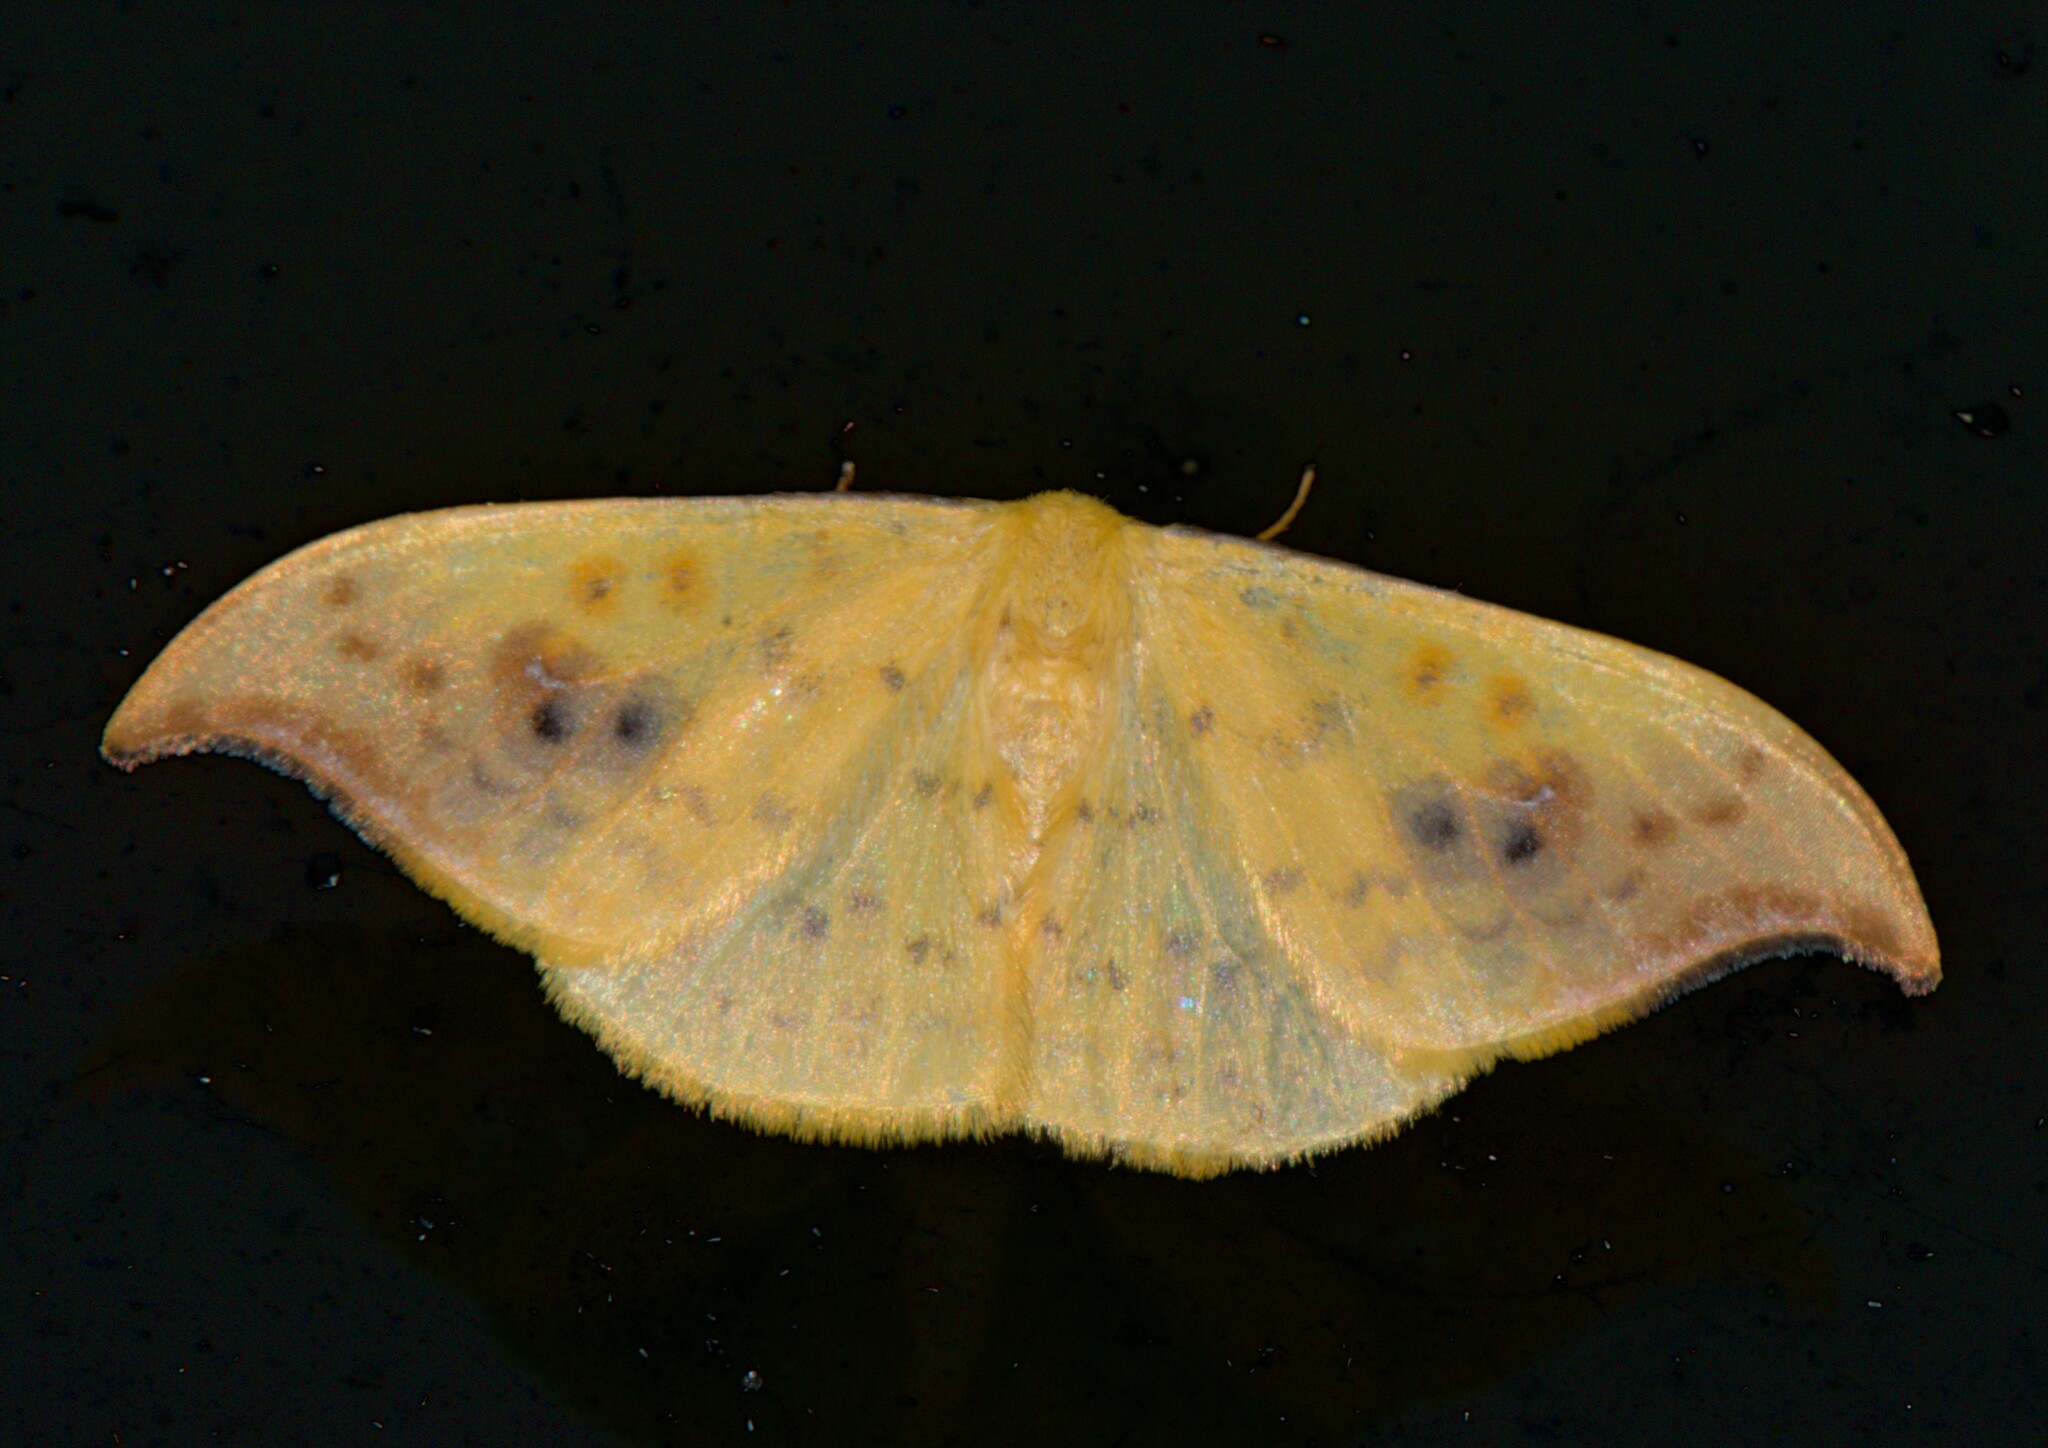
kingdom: Animalia
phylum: Arthropoda
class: Insecta
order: Lepidoptera
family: Drepanidae
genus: Tridrepana
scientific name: Tridrepana sadana
